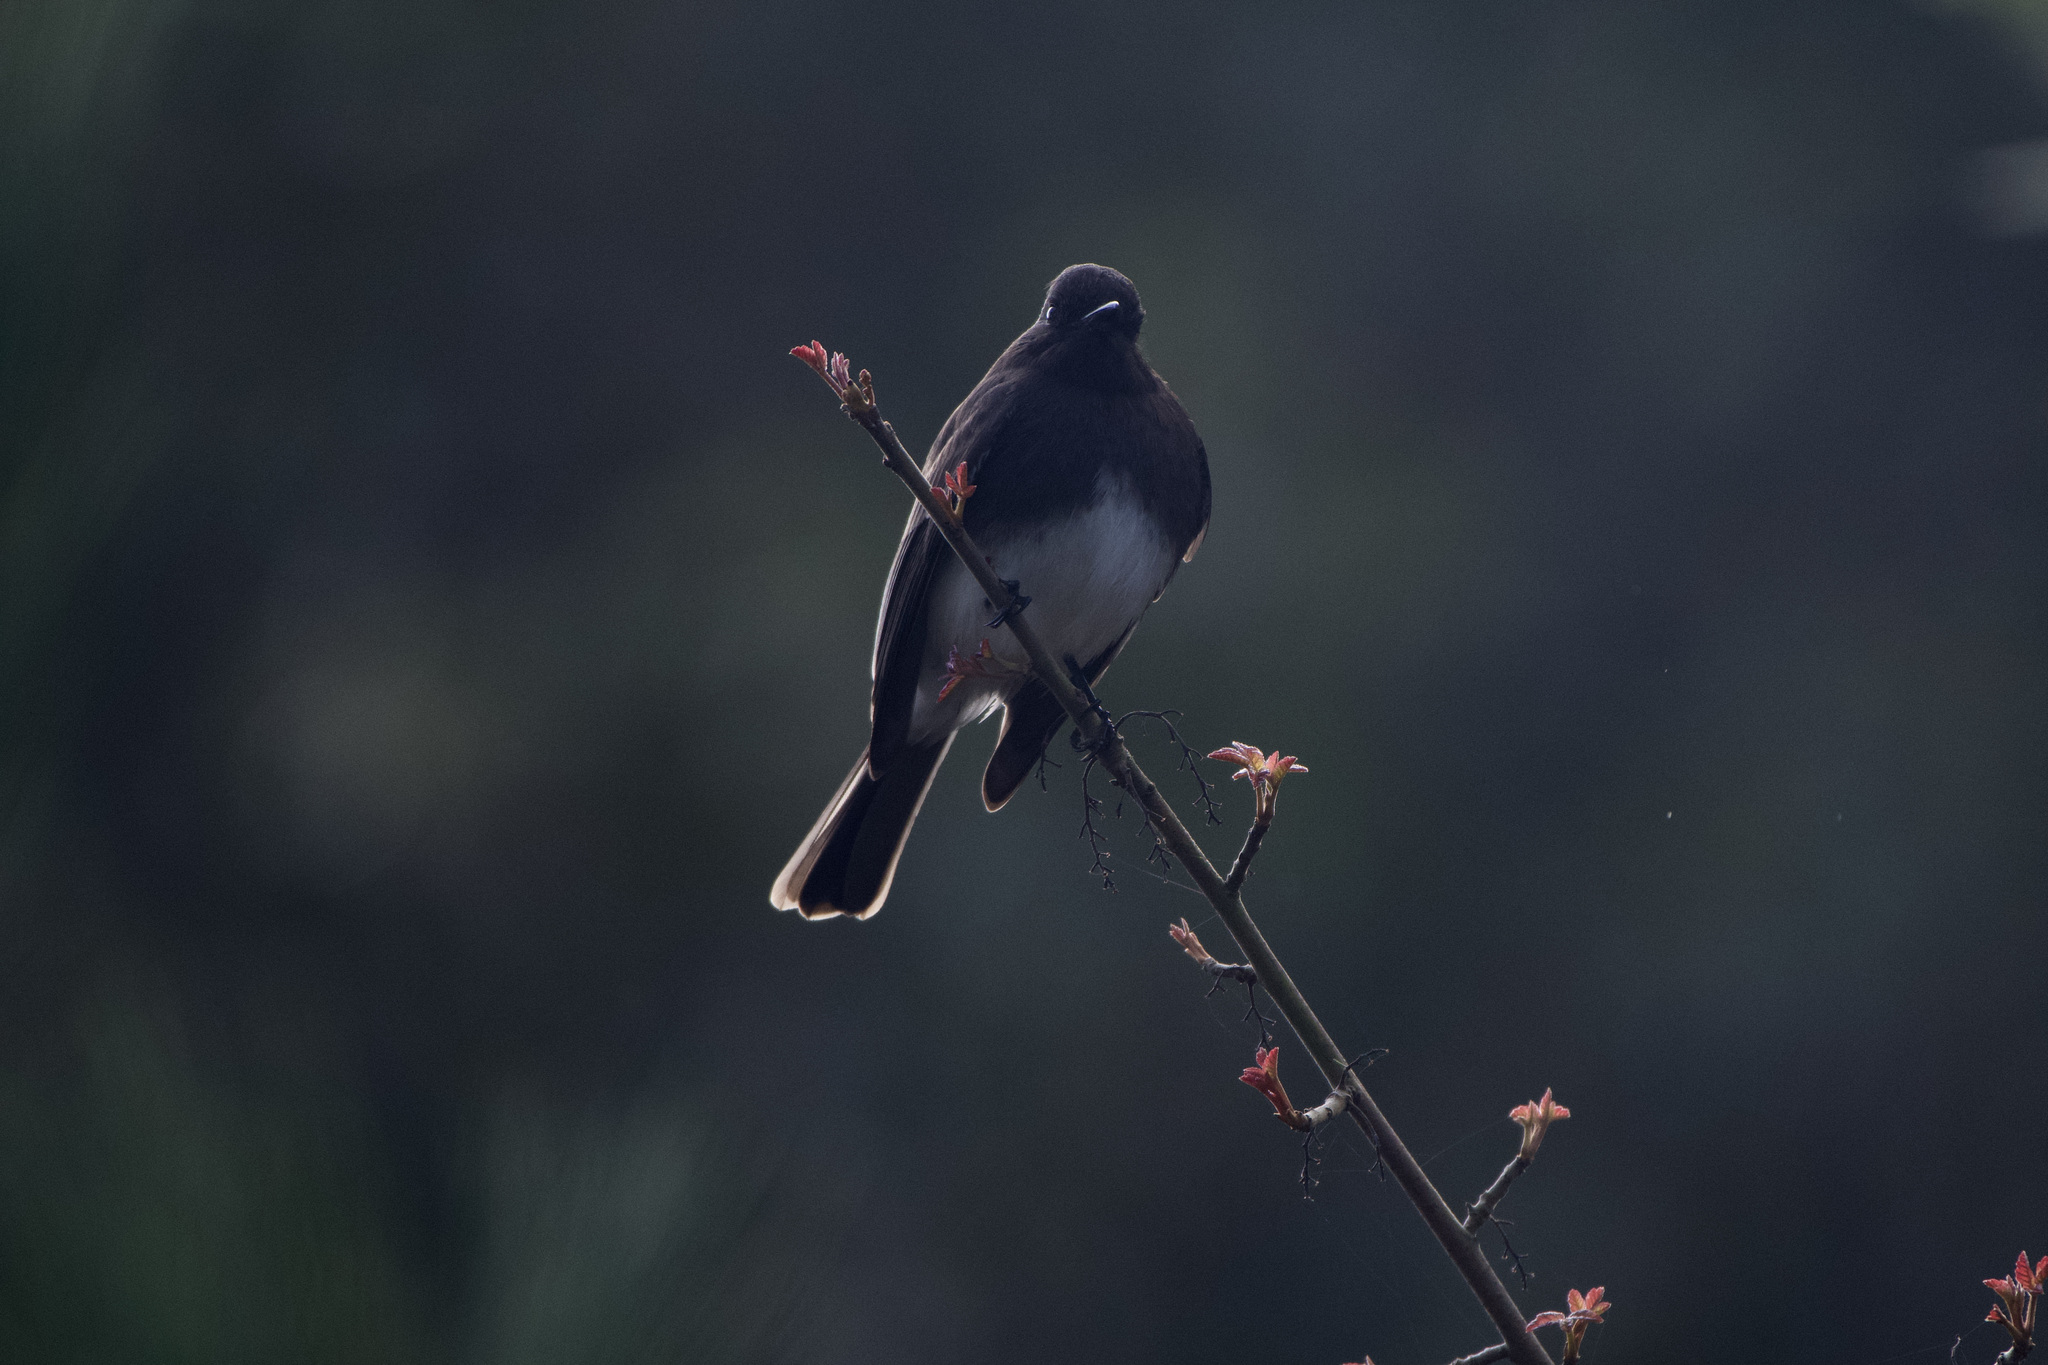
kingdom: Animalia
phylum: Chordata
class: Aves
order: Passeriformes
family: Tyrannidae
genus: Sayornis
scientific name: Sayornis nigricans
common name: Black phoebe
